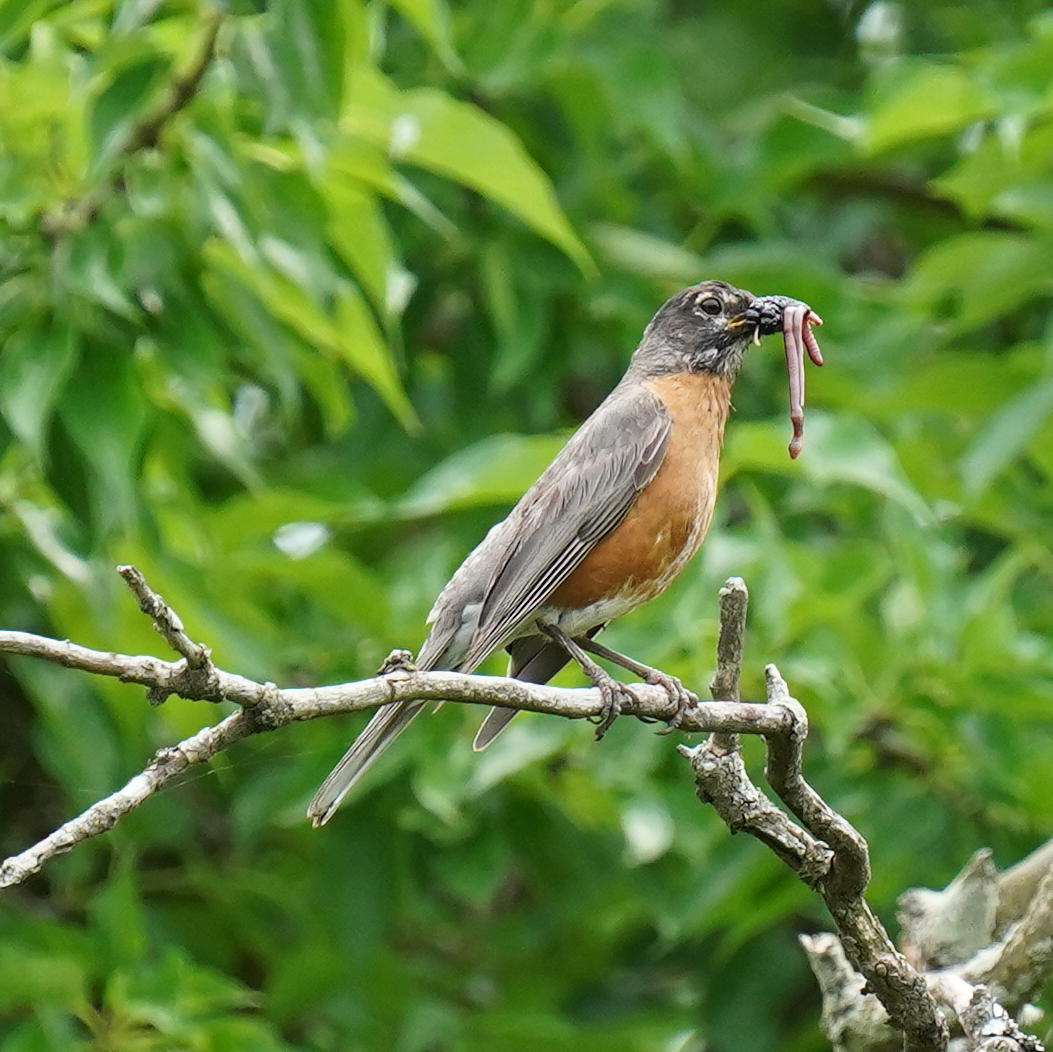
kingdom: Animalia
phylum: Chordata
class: Aves
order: Passeriformes
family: Turdidae
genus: Turdus
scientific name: Turdus migratorius
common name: American robin
